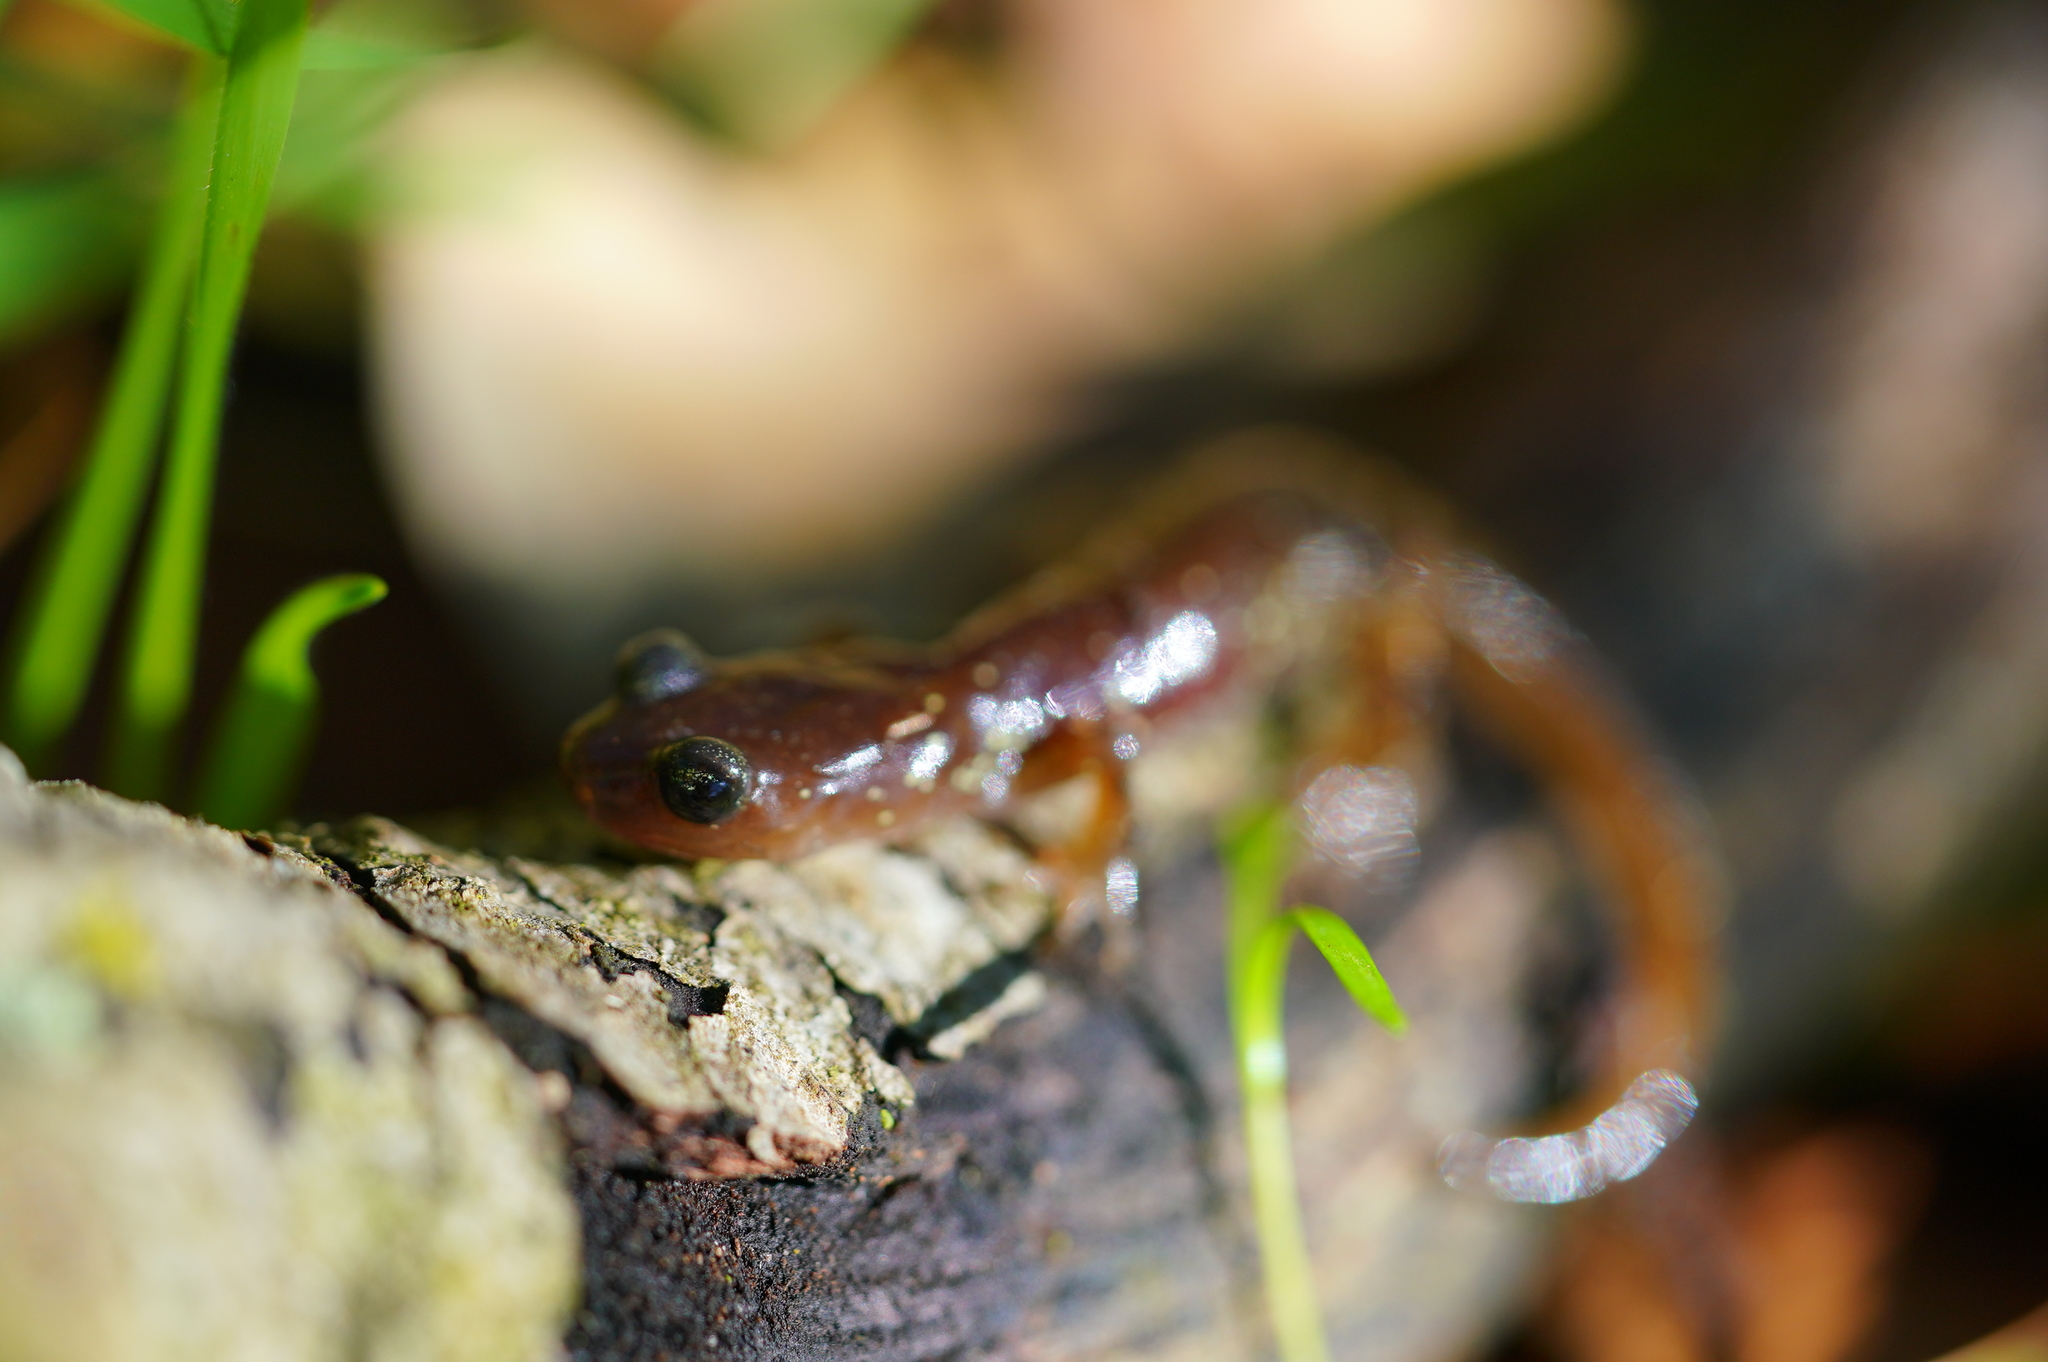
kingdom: Animalia
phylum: Chordata
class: Amphibia
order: Caudata
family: Plethodontidae
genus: Ensatina
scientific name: Ensatina eschscholtzii
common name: Ensatina
